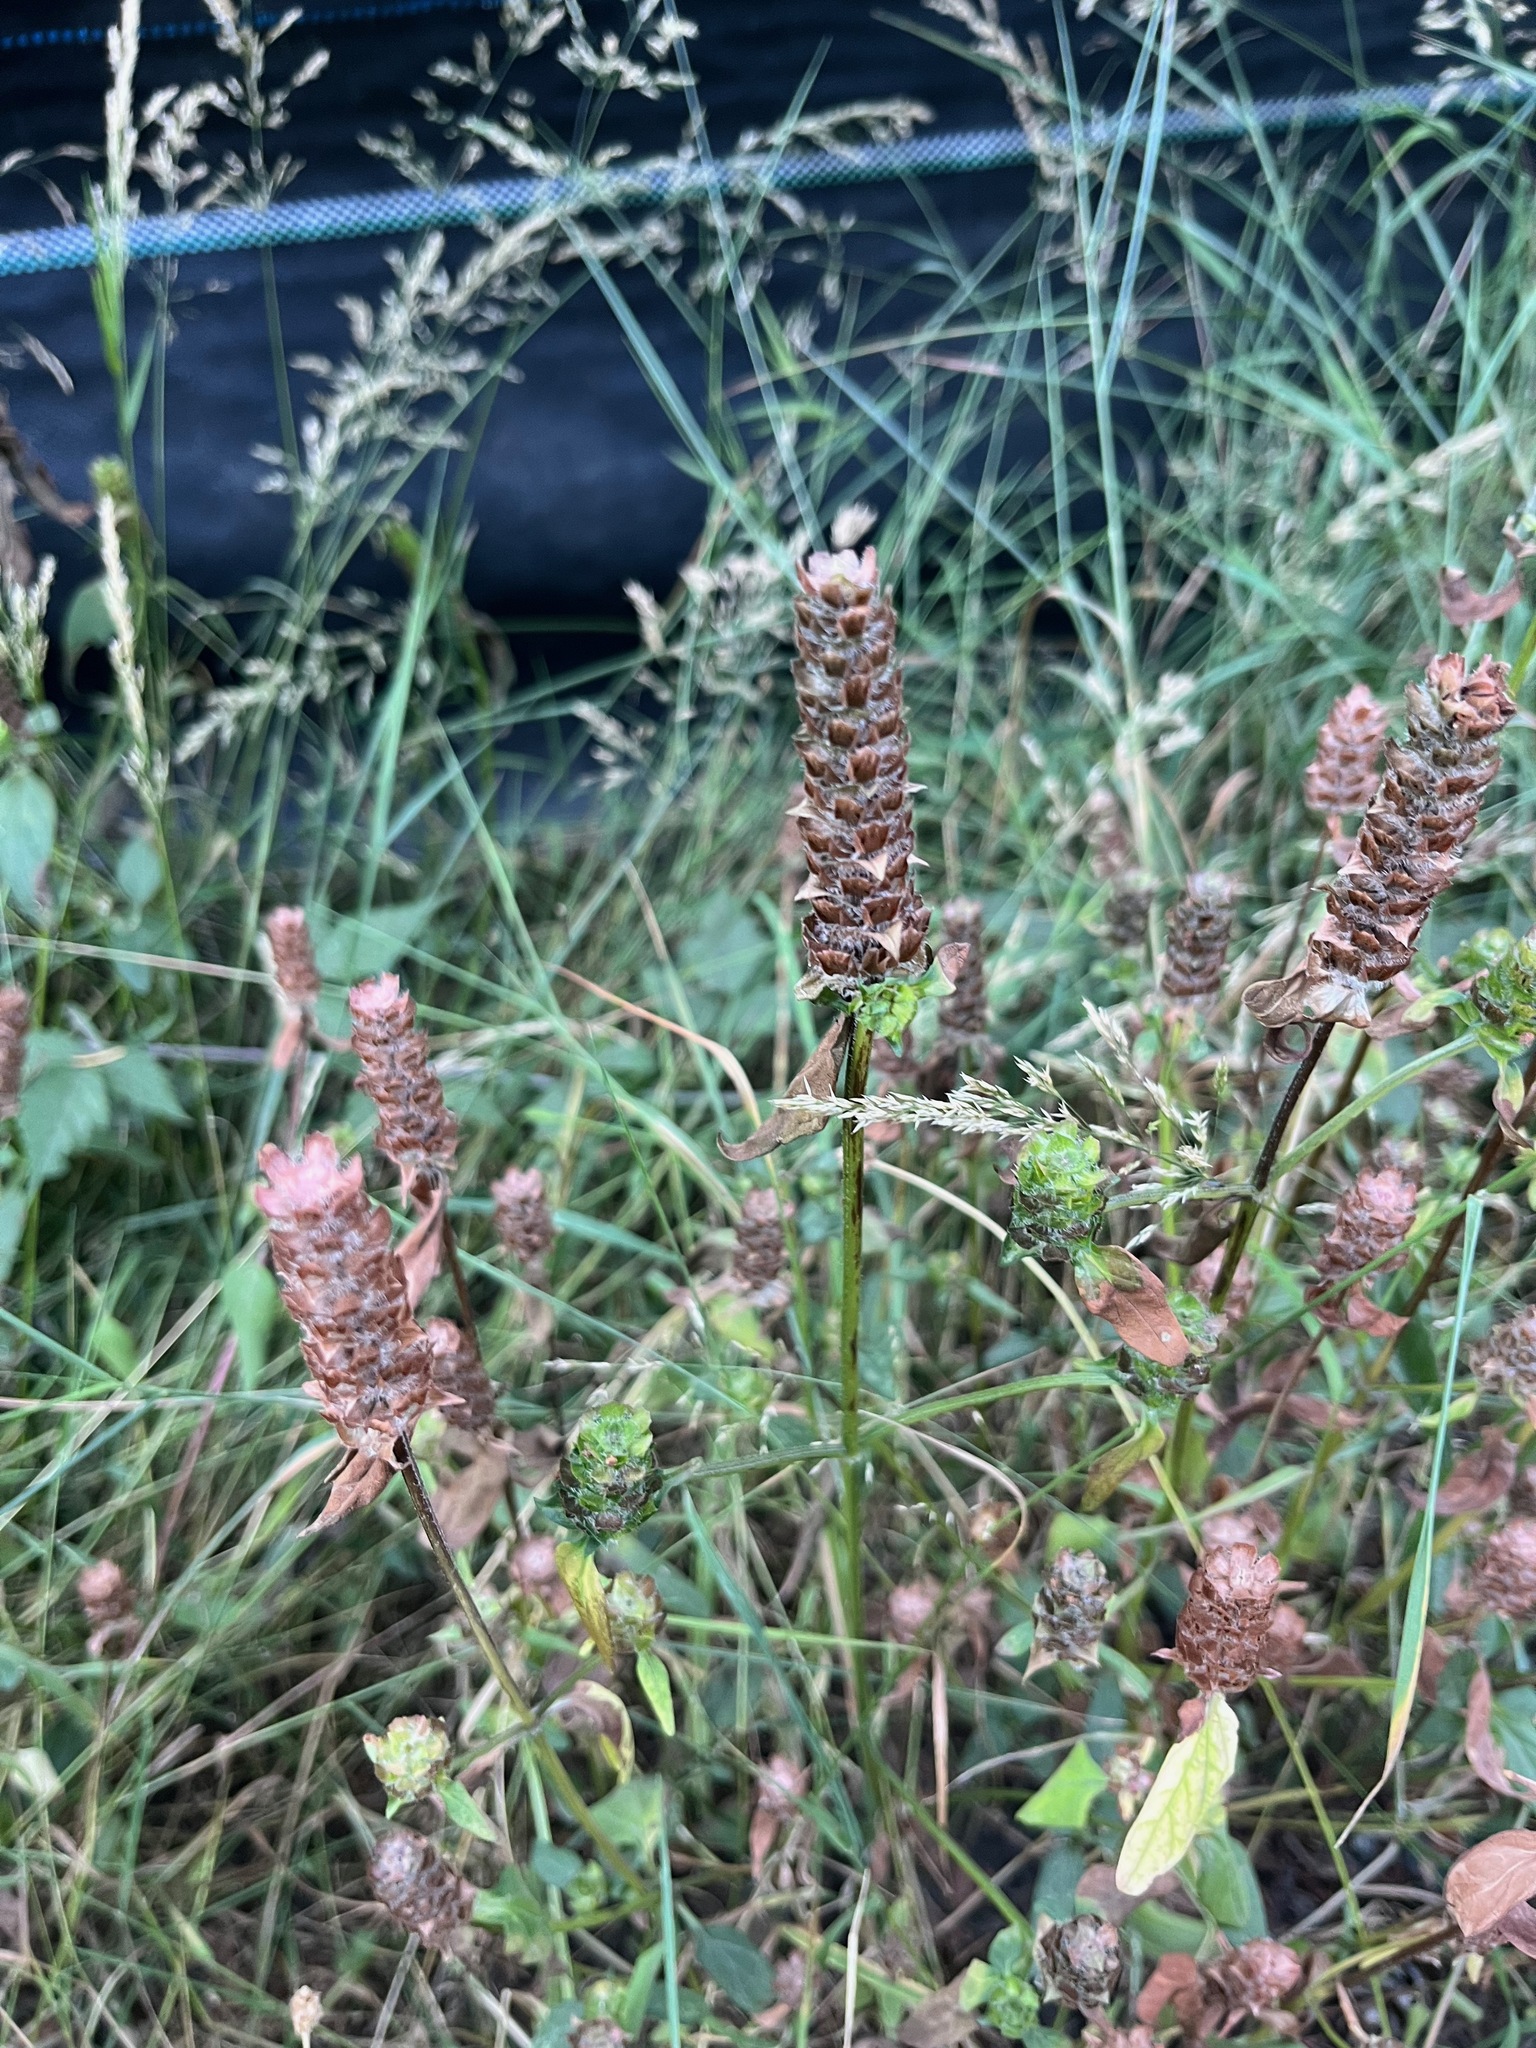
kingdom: Plantae
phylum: Tracheophyta
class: Magnoliopsida
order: Lamiales
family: Lamiaceae
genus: Prunella
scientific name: Prunella vulgaris
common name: Heal-all
